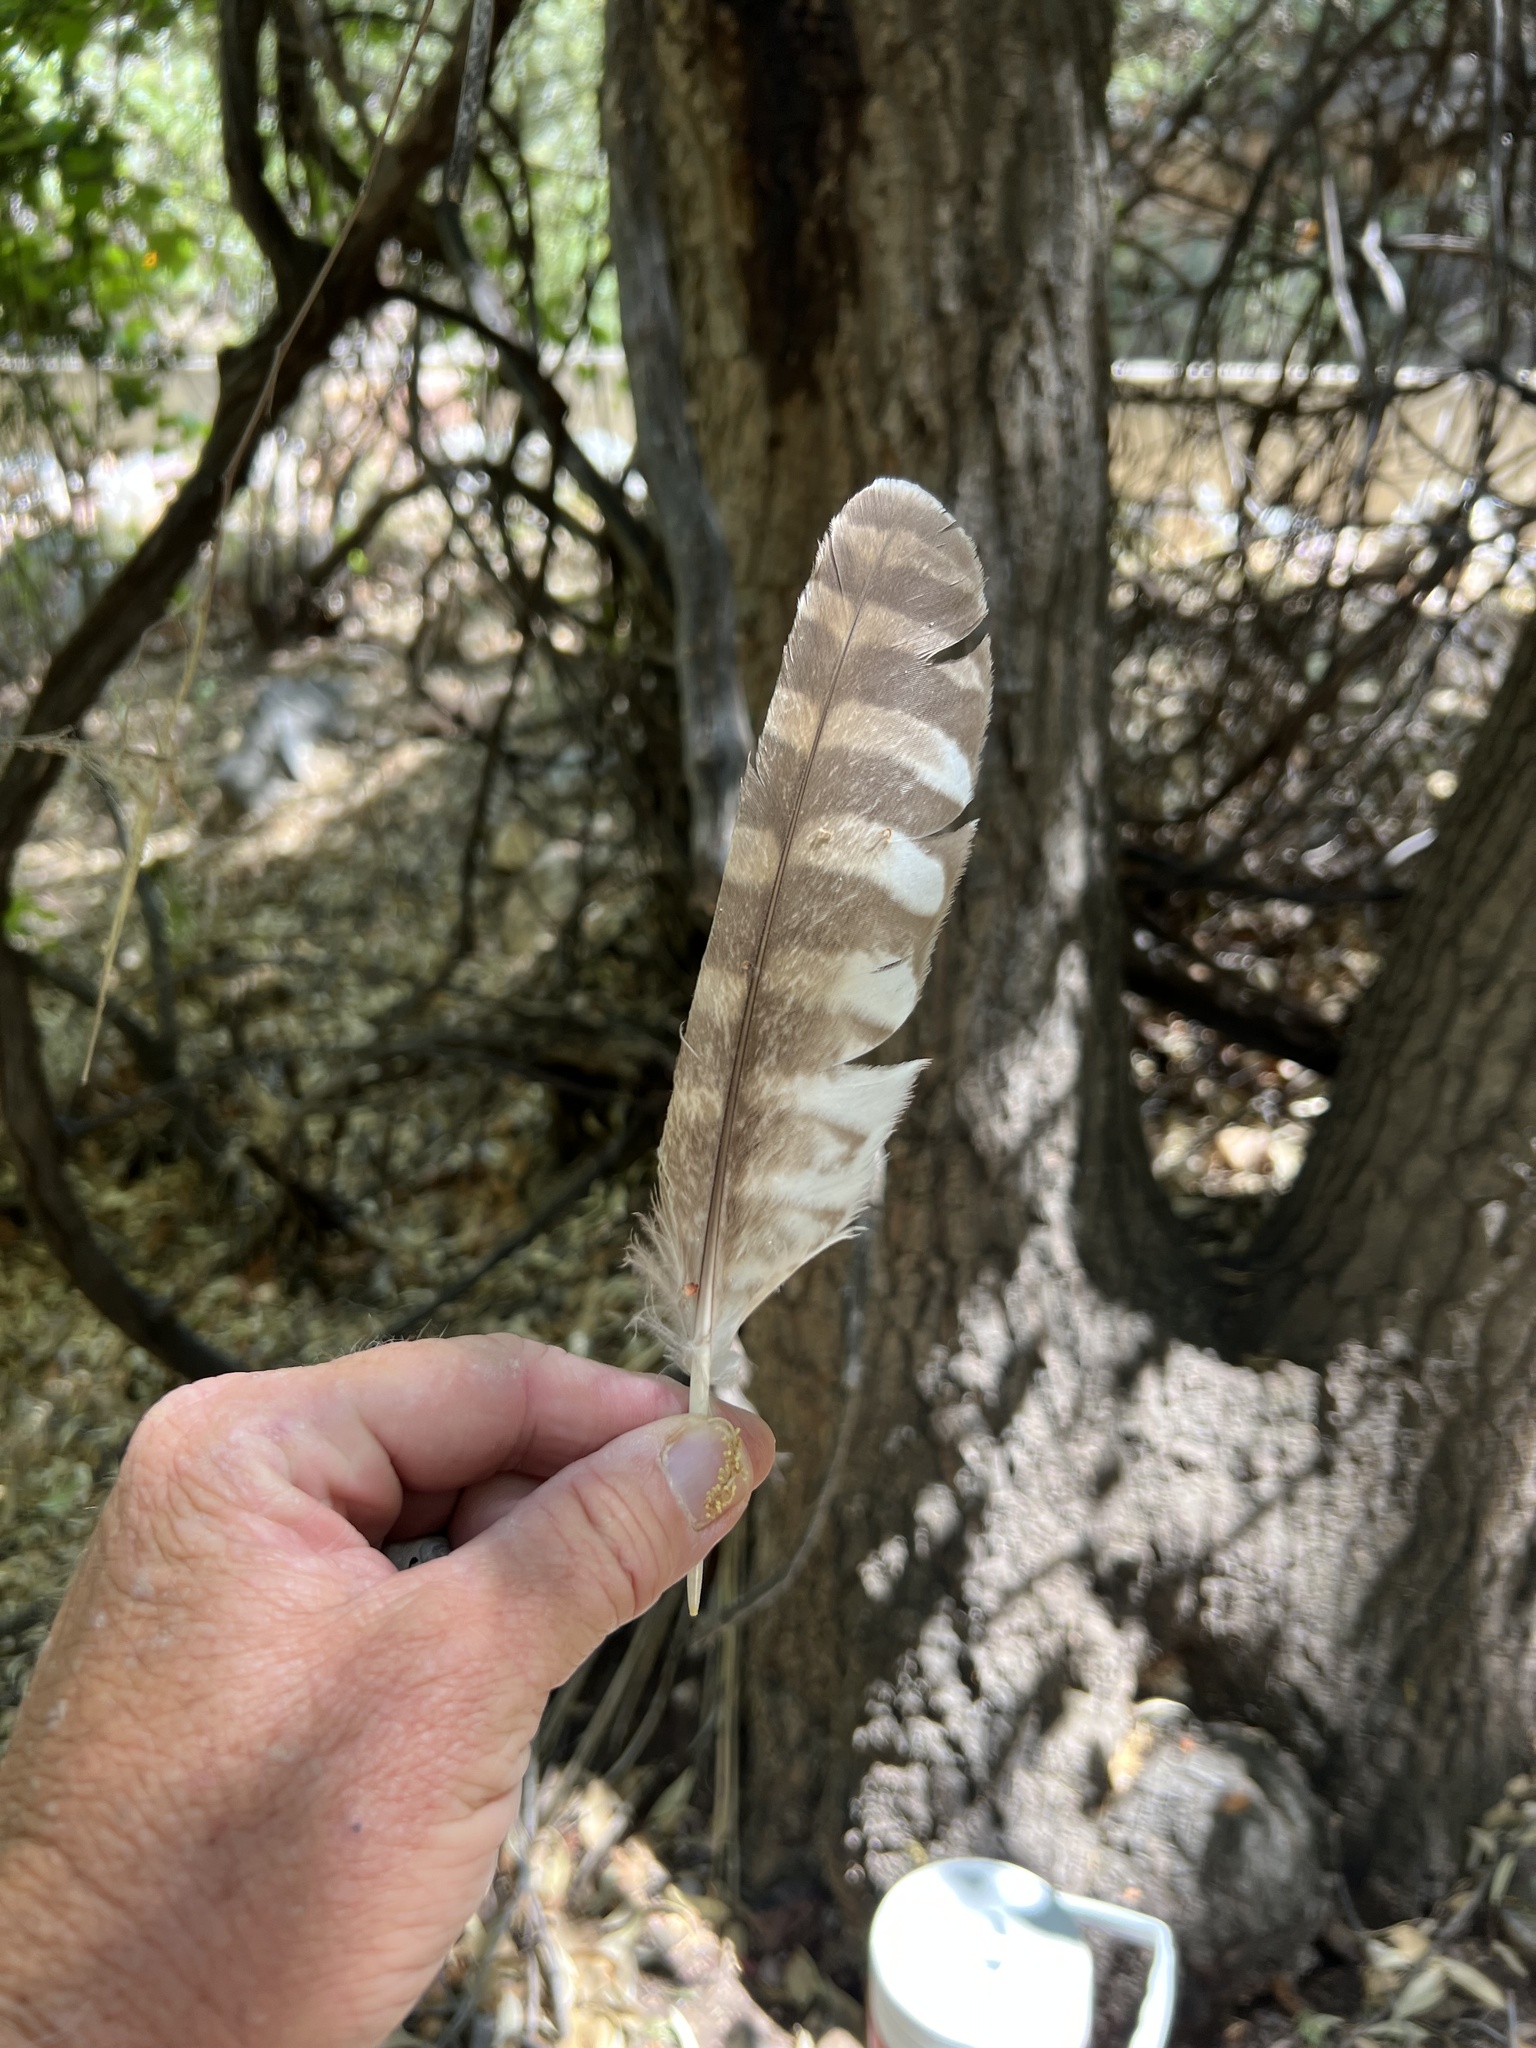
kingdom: Animalia
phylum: Chordata
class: Aves
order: Strigiformes
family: Strigidae
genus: Strix
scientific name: Strix occidentalis
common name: Spotted owl
